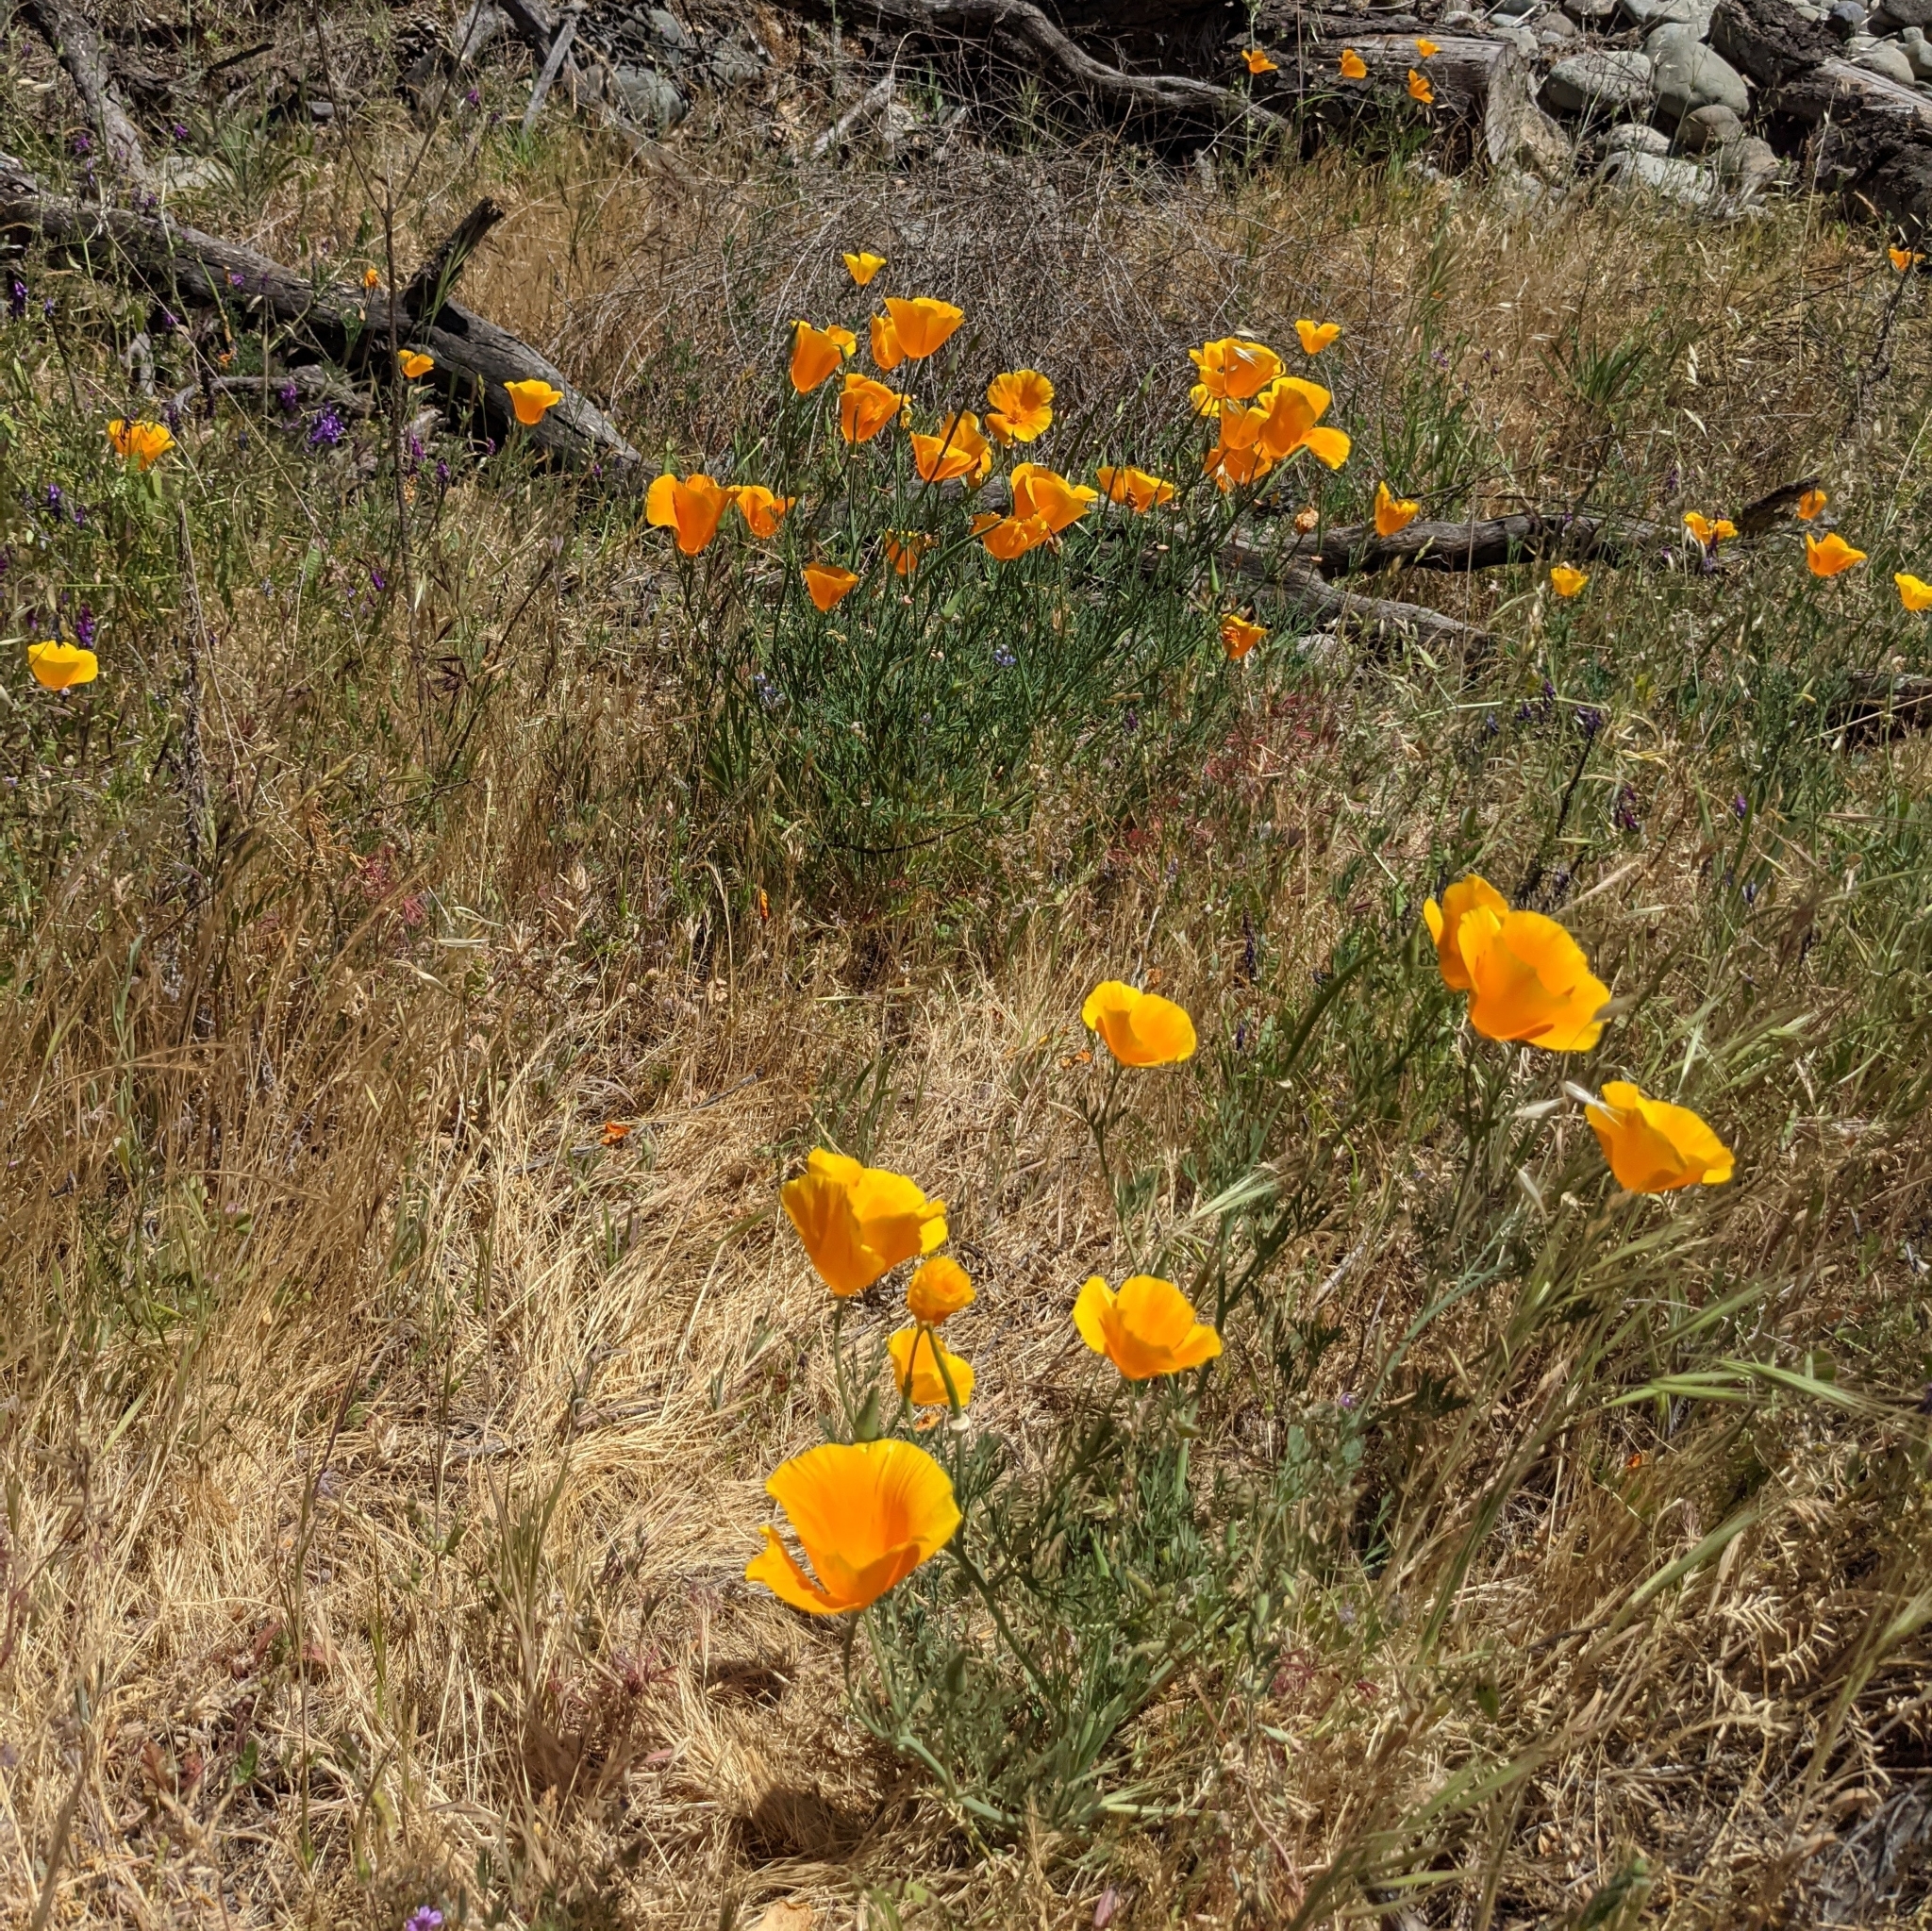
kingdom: Plantae
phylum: Tracheophyta
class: Magnoliopsida
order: Ranunculales
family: Papaveraceae
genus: Eschscholzia
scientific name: Eschscholzia californica
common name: California poppy
